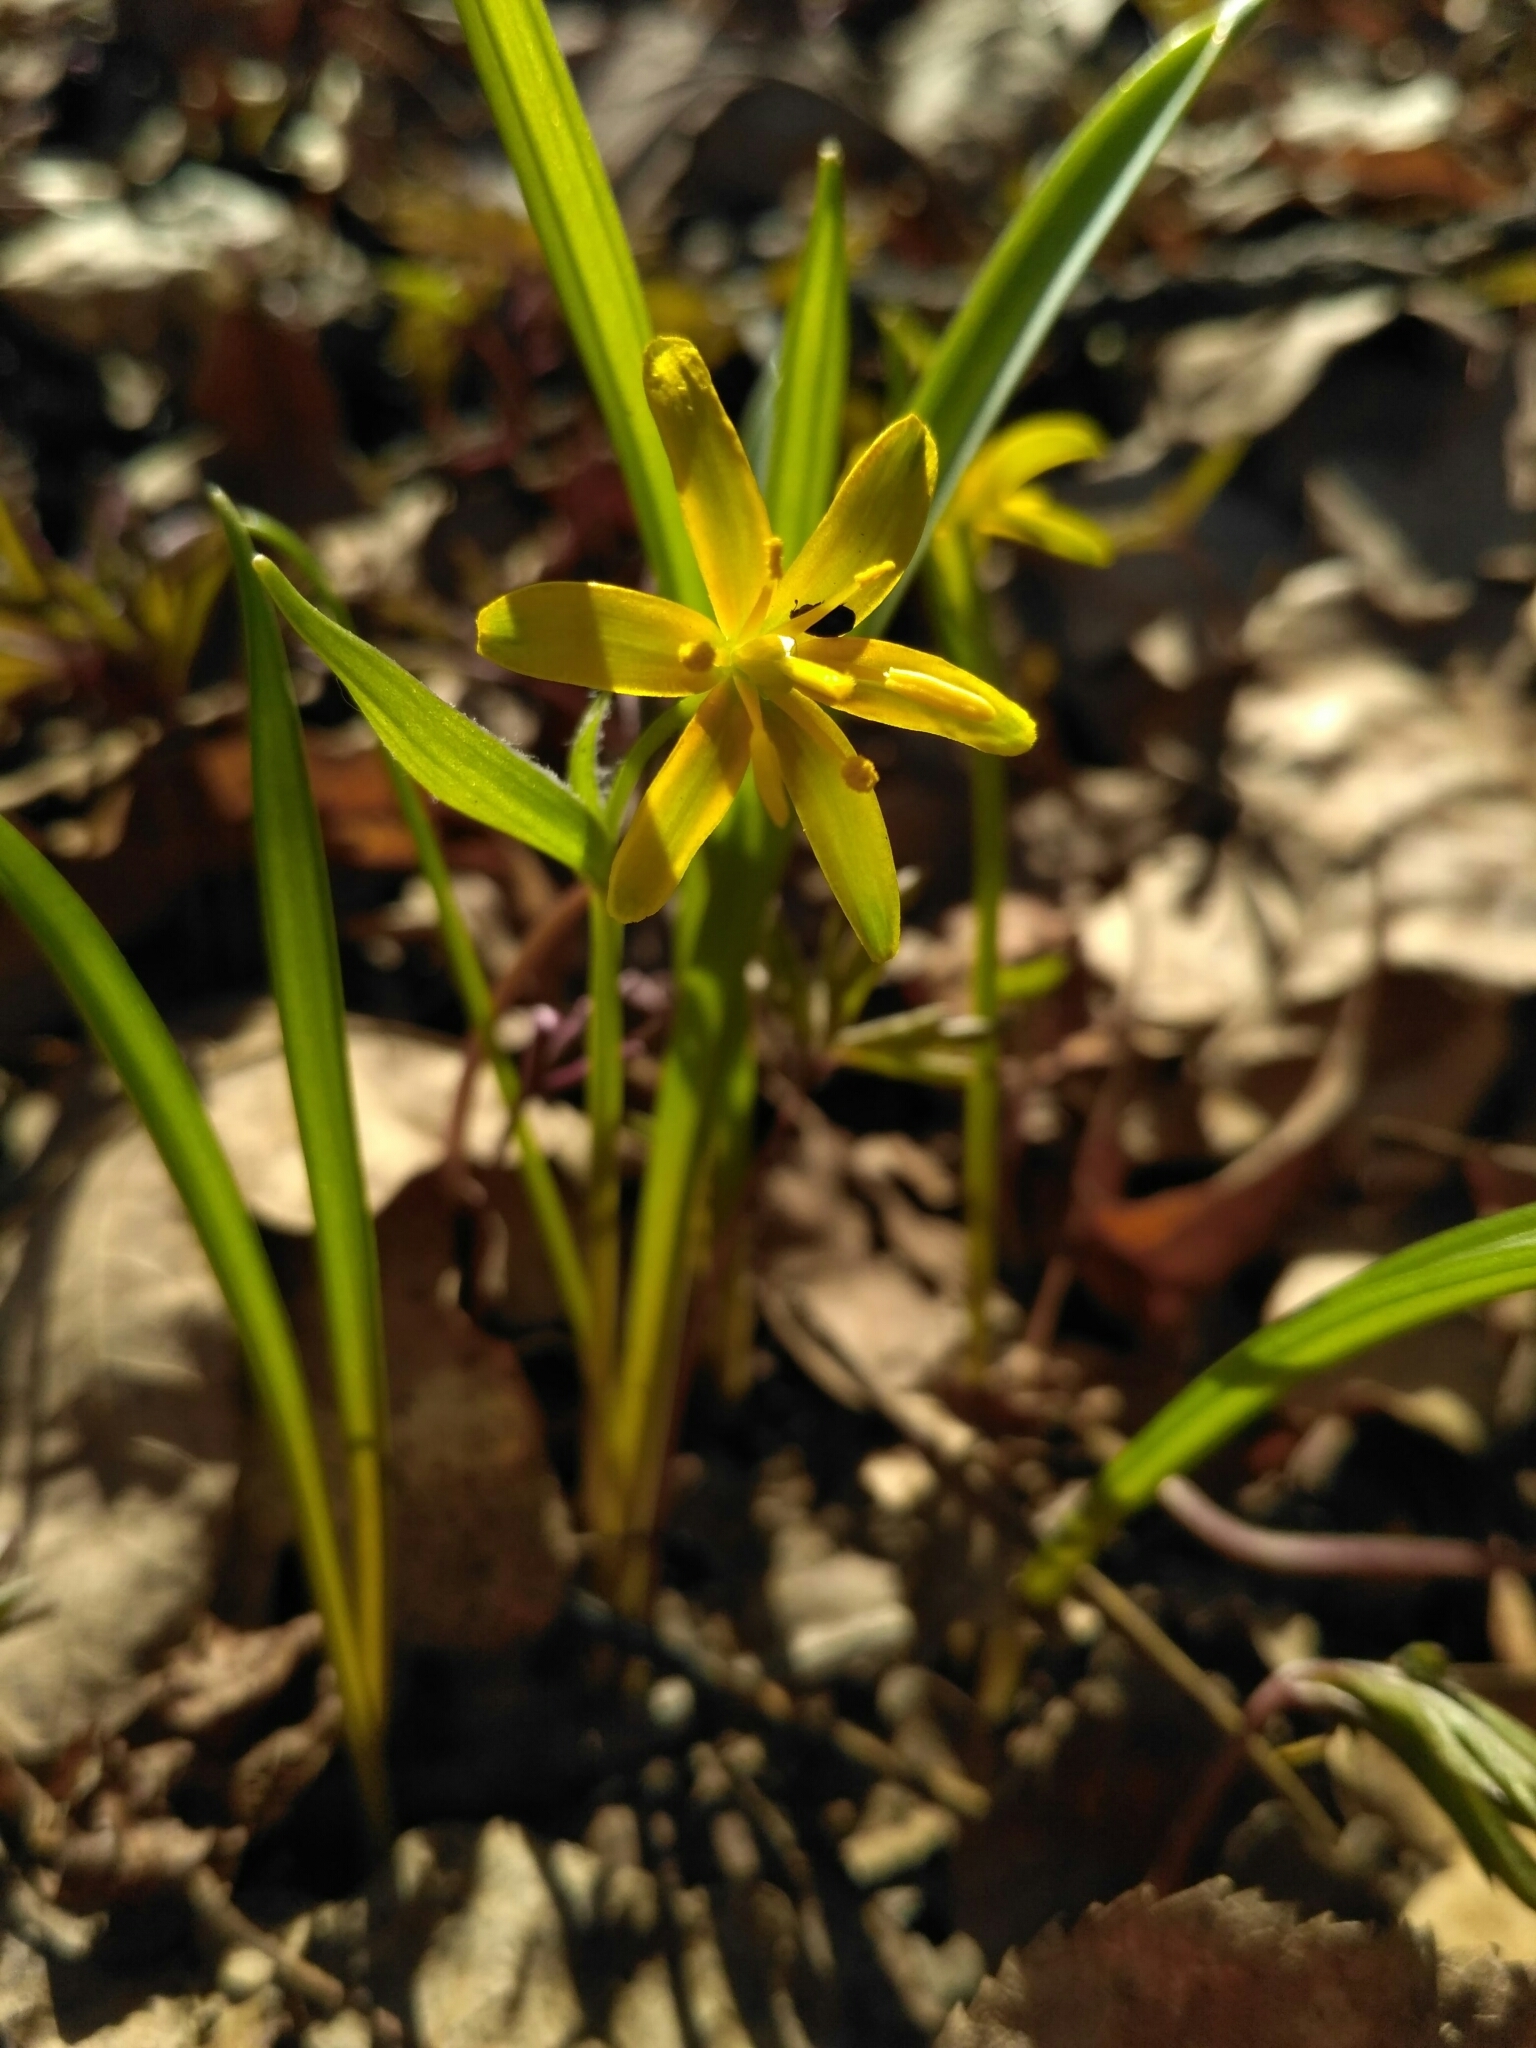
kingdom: Plantae
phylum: Tracheophyta
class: Liliopsida
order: Liliales
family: Liliaceae
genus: Gagea
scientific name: Gagea lutea
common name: Yellow star-of-bethlehem
